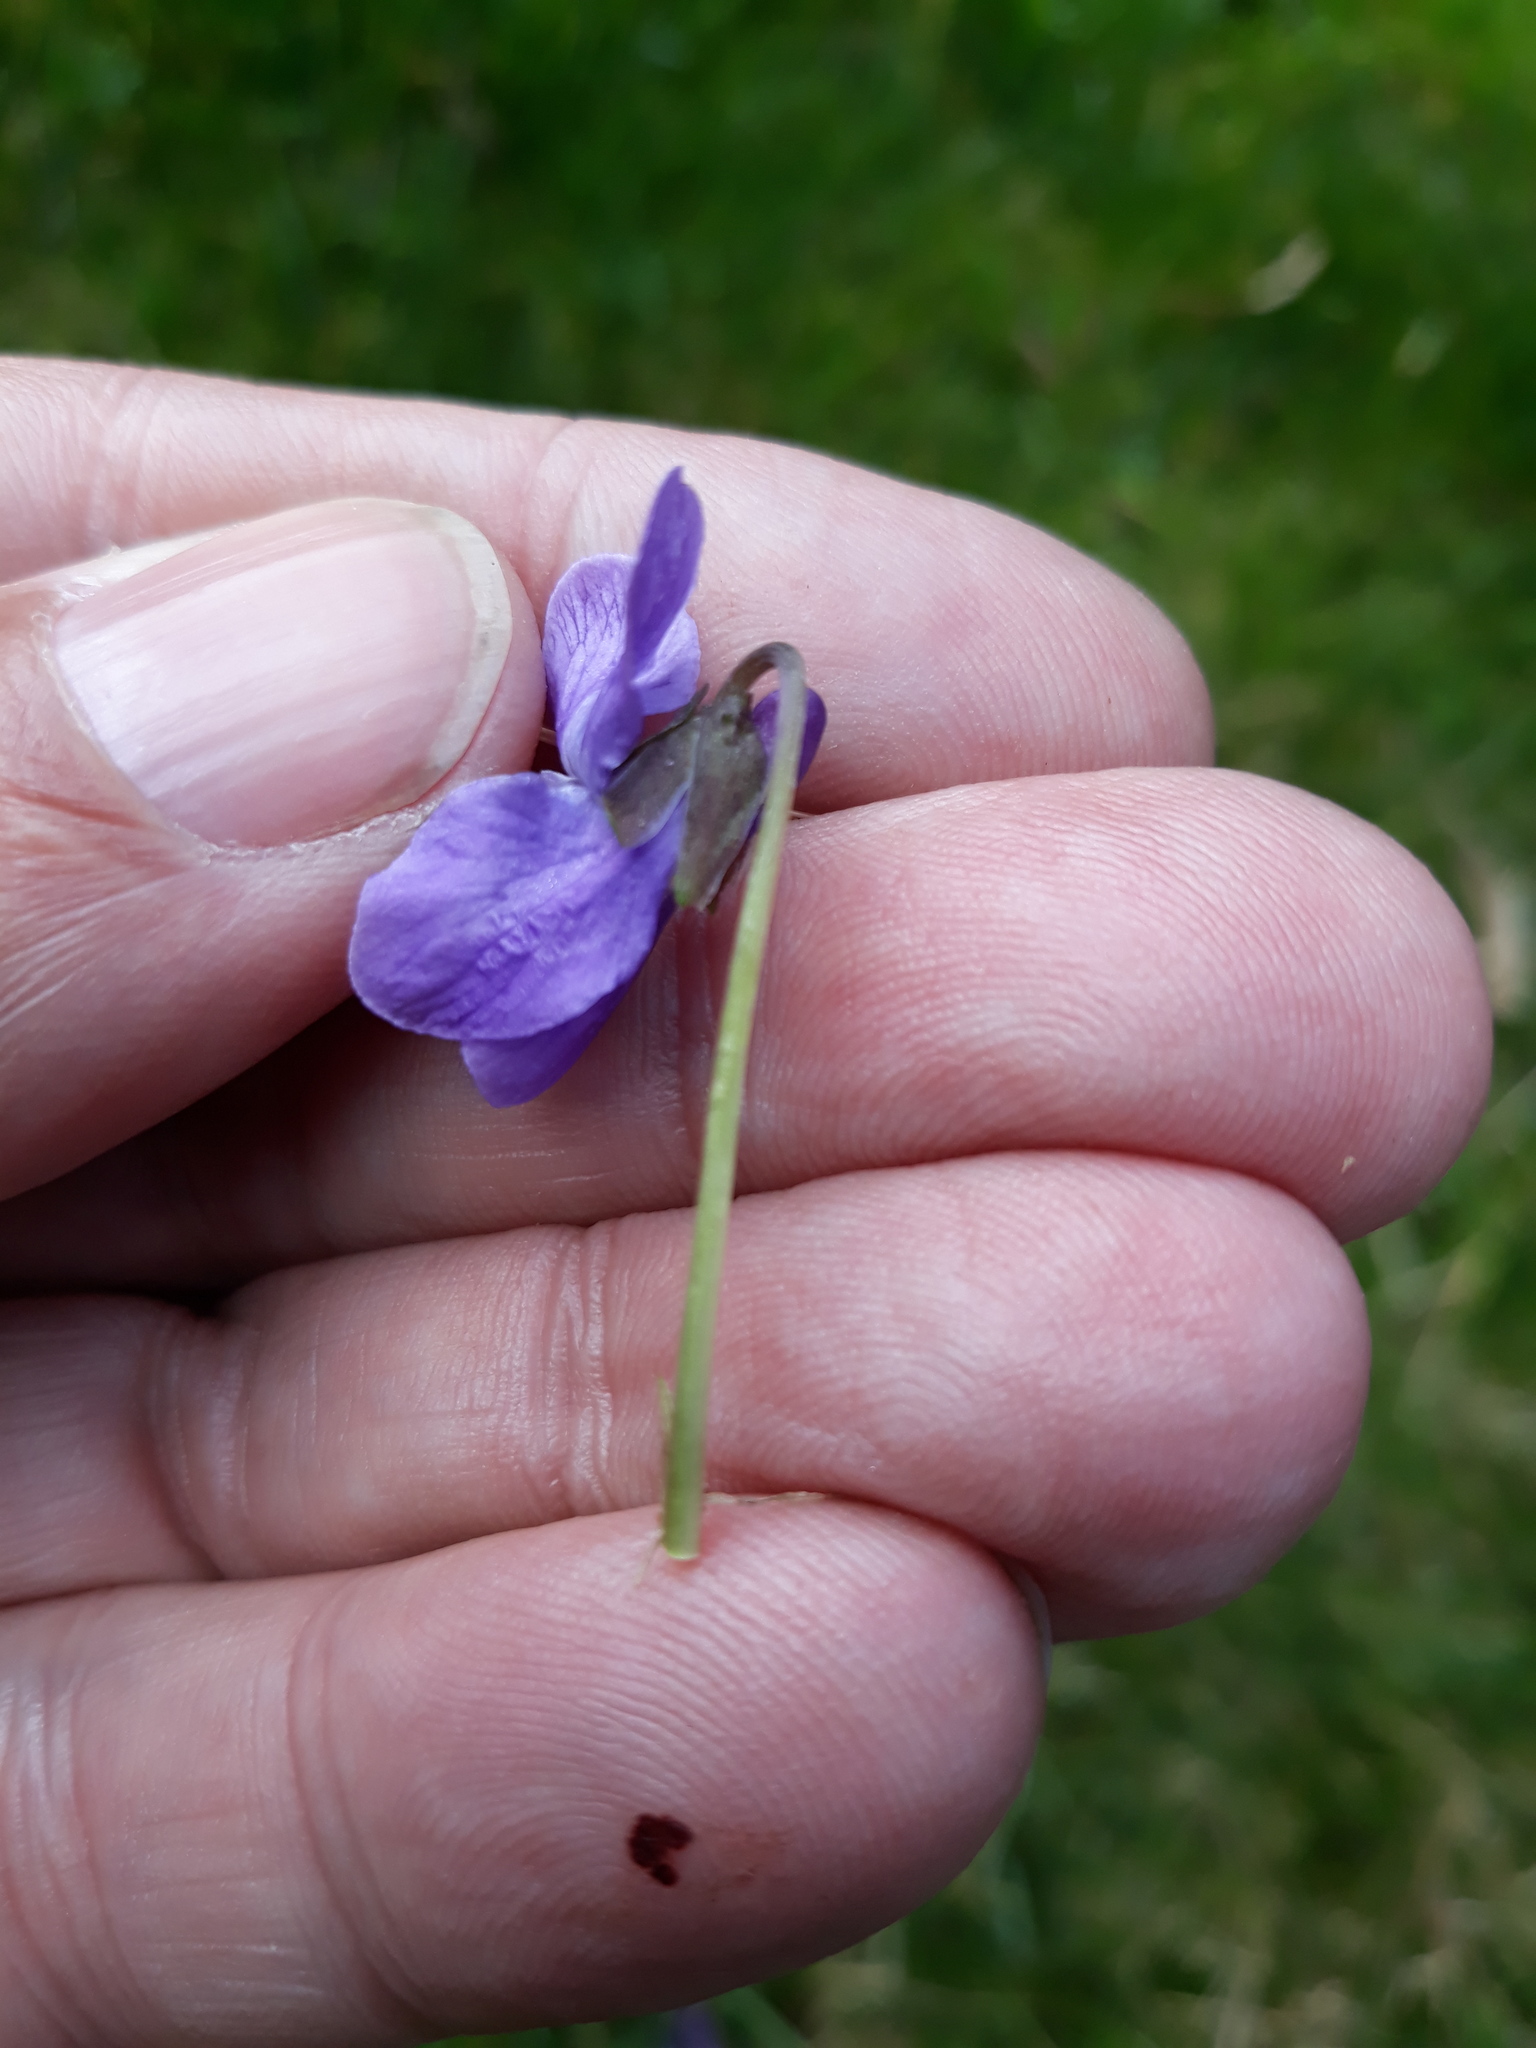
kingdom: Plantae
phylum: Tracheophyta
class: Magnoliopsida
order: Malpighiales
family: Violaceae
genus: Viola
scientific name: Viola odorata
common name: Sweet violet
